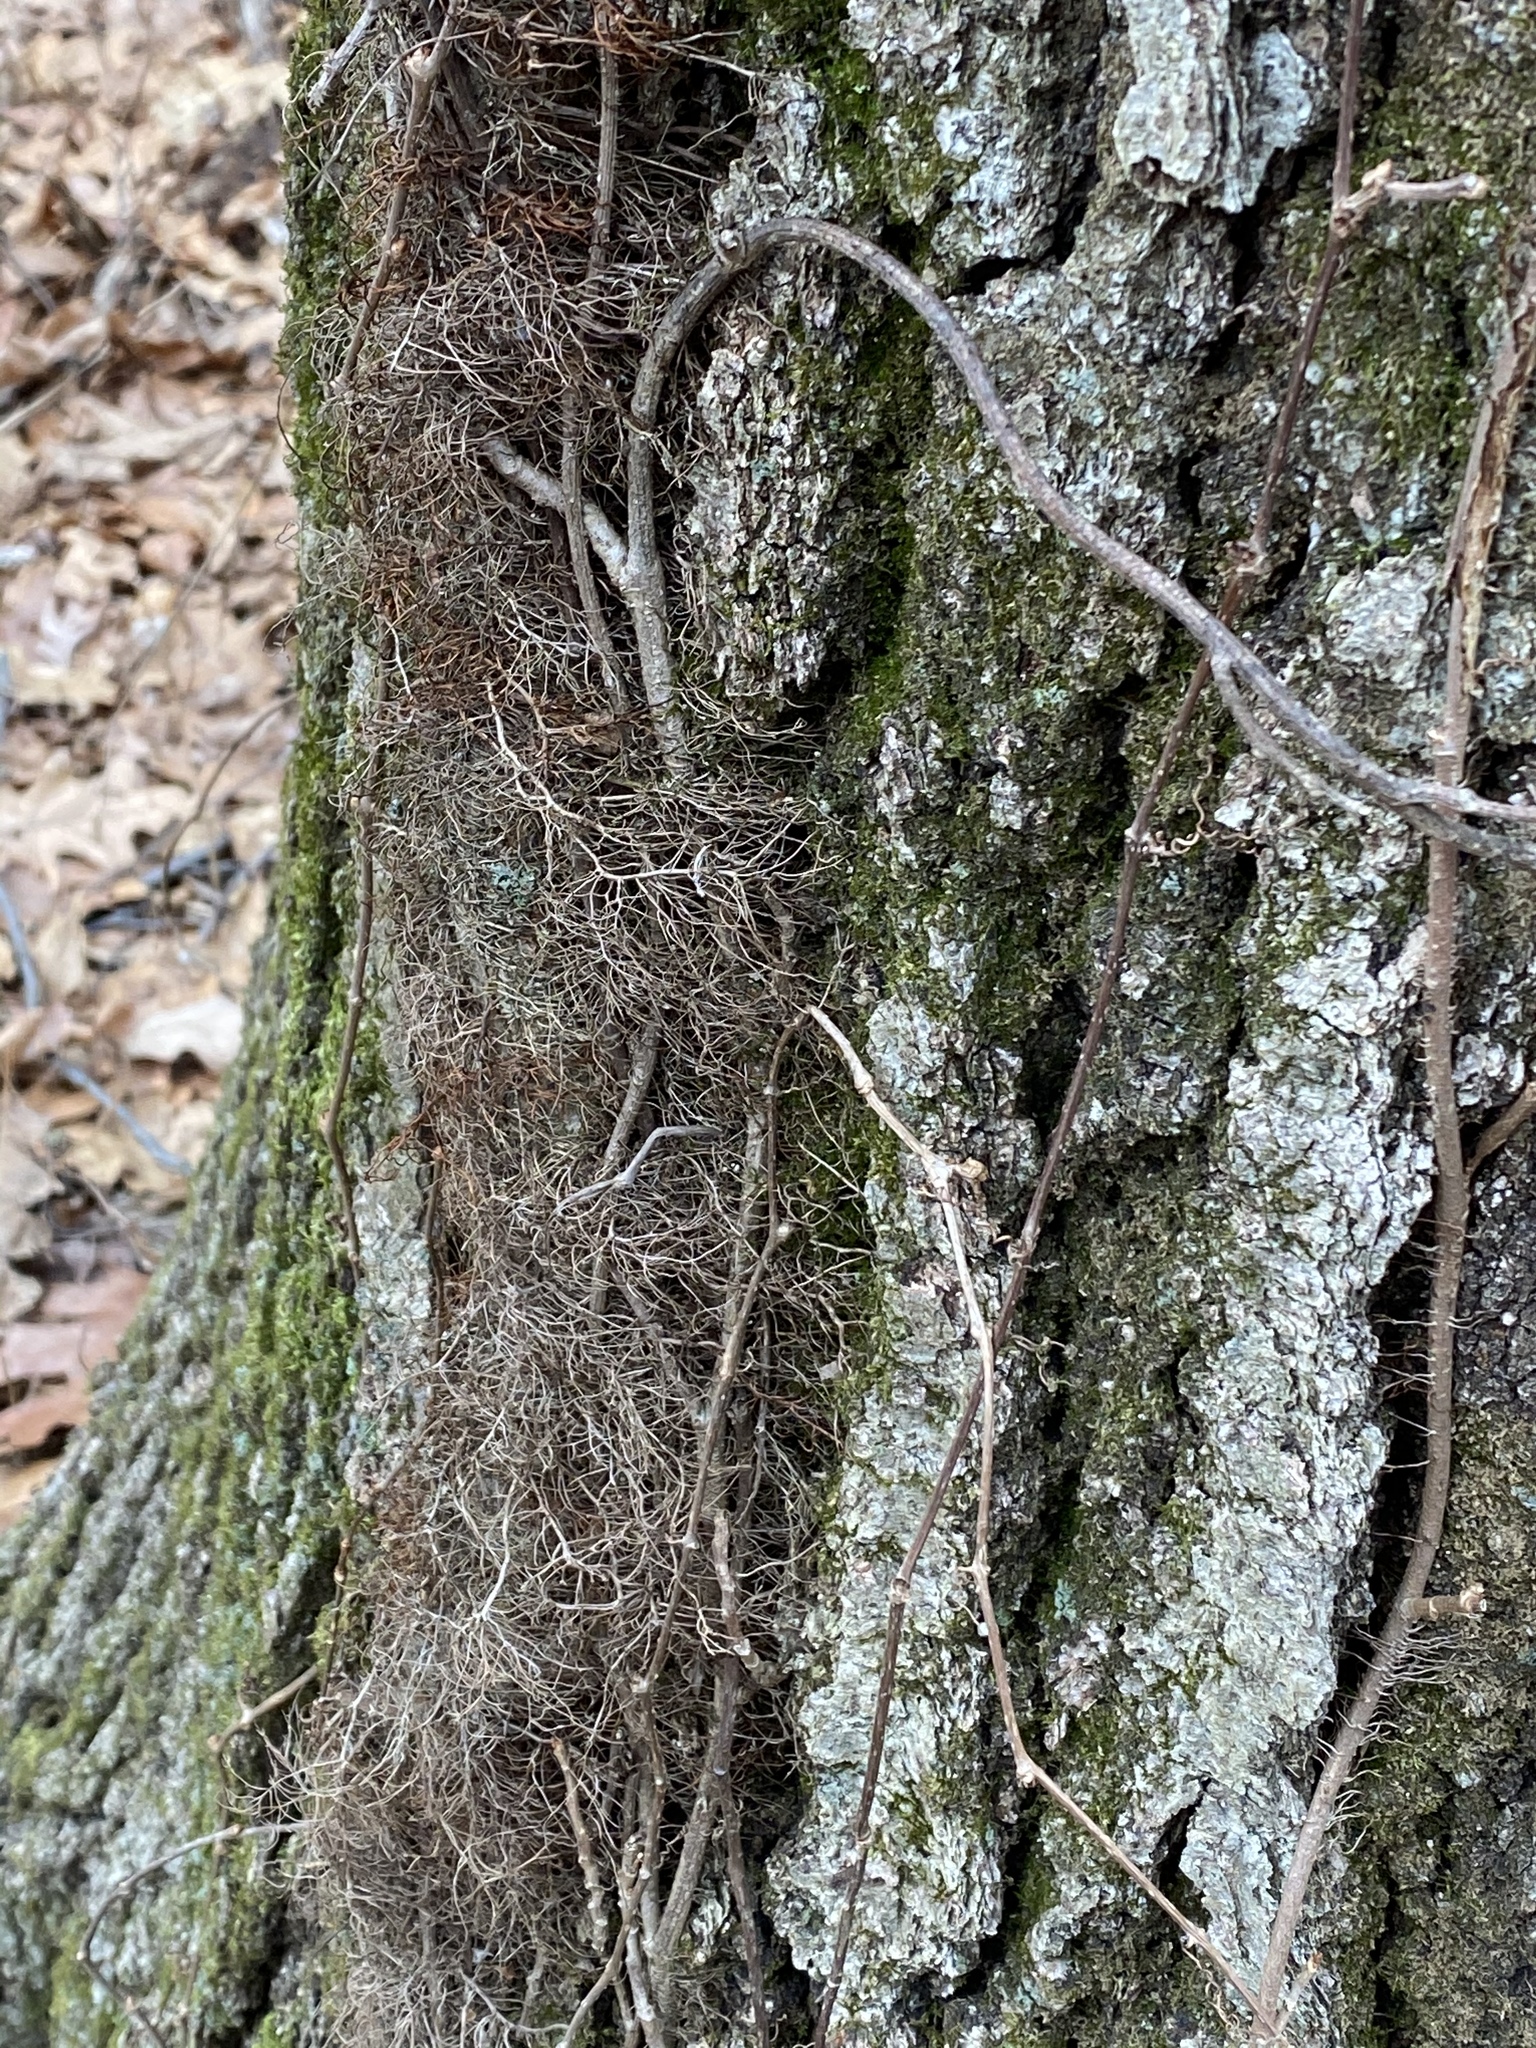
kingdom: Plantae
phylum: Tracheophyta
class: Magnoliopsida
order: Sapindales
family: Anacardiaceae
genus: Toxicodendron
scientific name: Toxicodendron radicans
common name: Poison ivy
